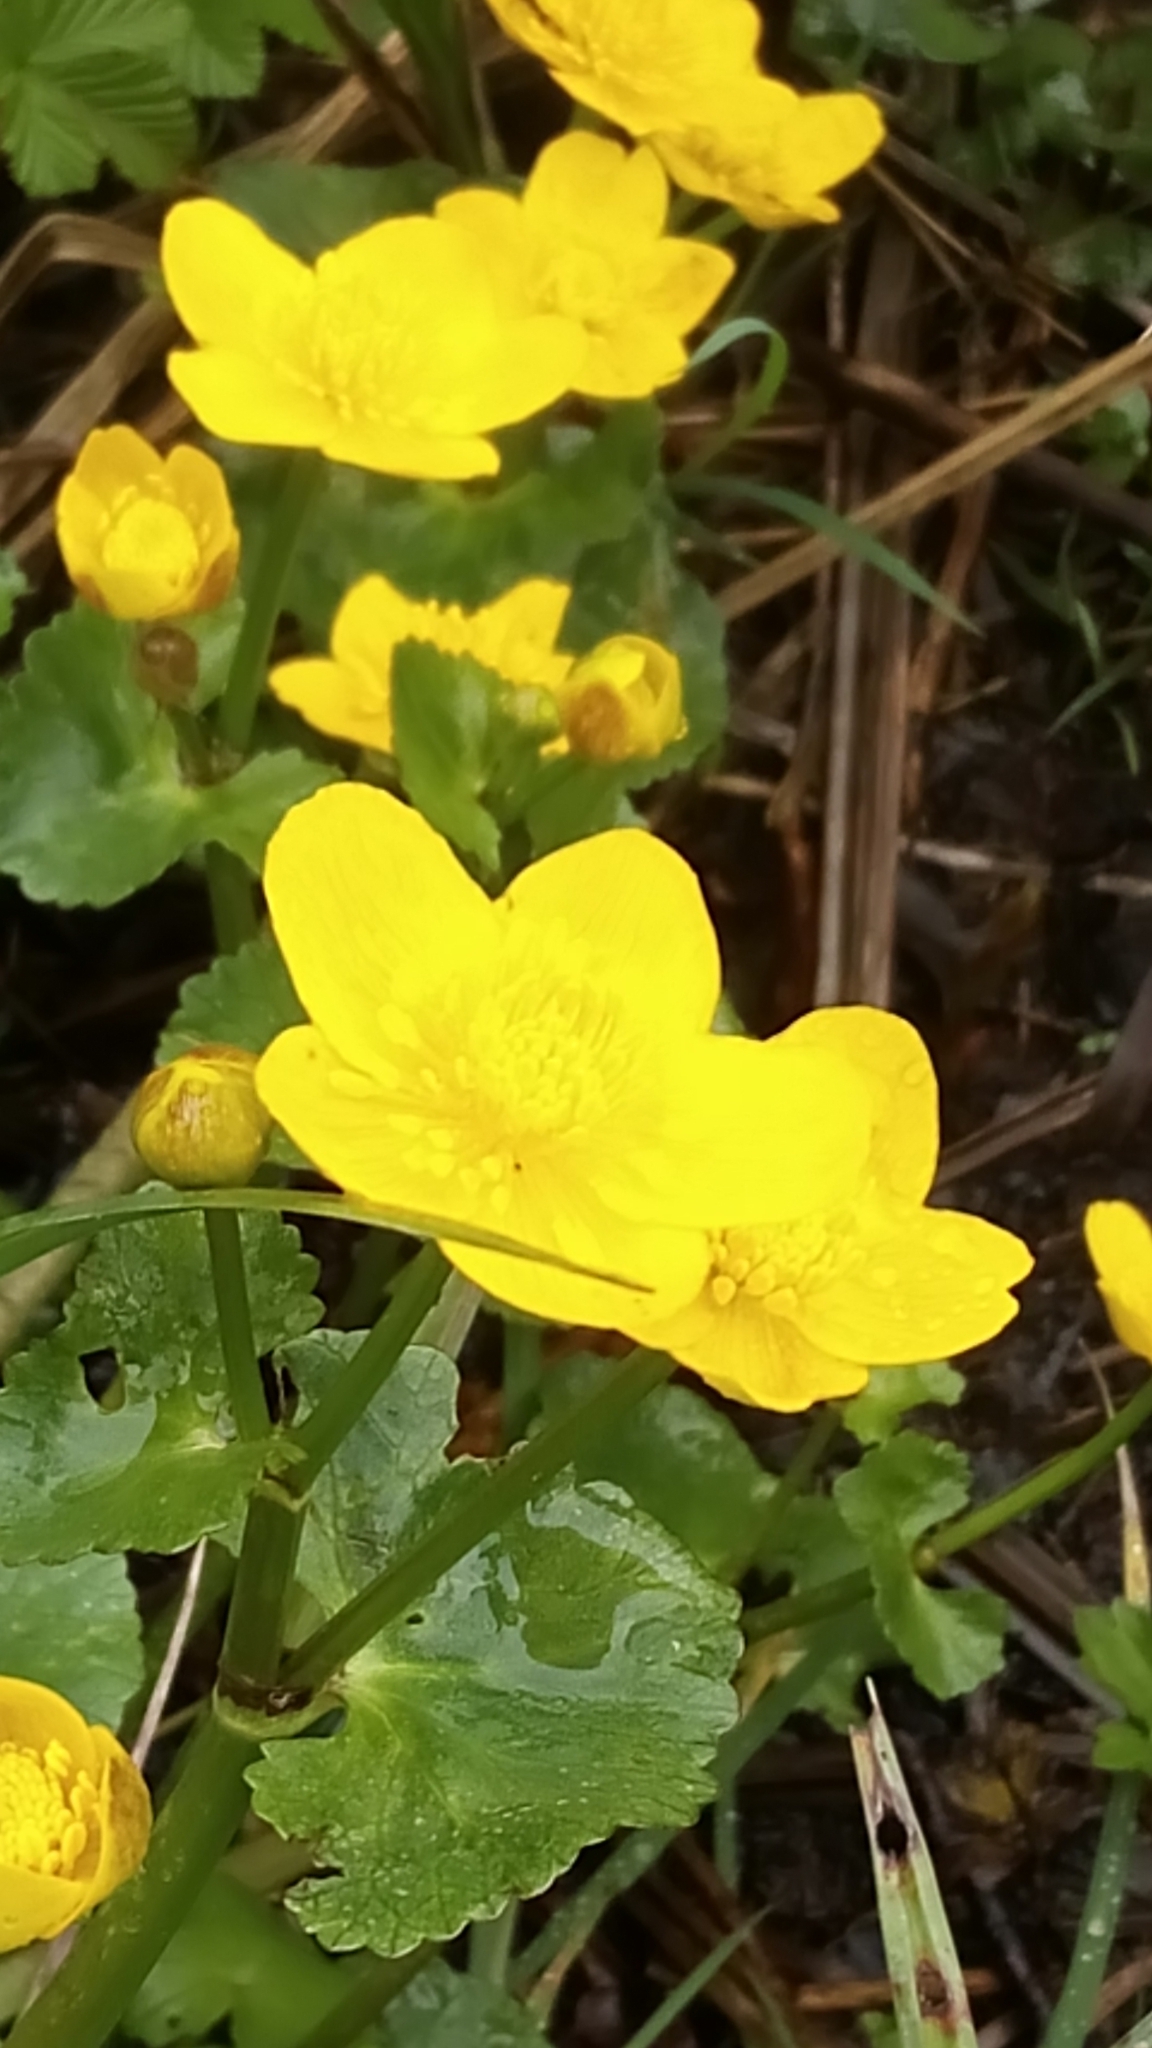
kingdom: Plantae
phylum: Tracheophyta
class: Magnoliopsida
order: Ranunculales
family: Ranunculaceae
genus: Caltha
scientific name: Caltha palustris
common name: Marsh marigold
